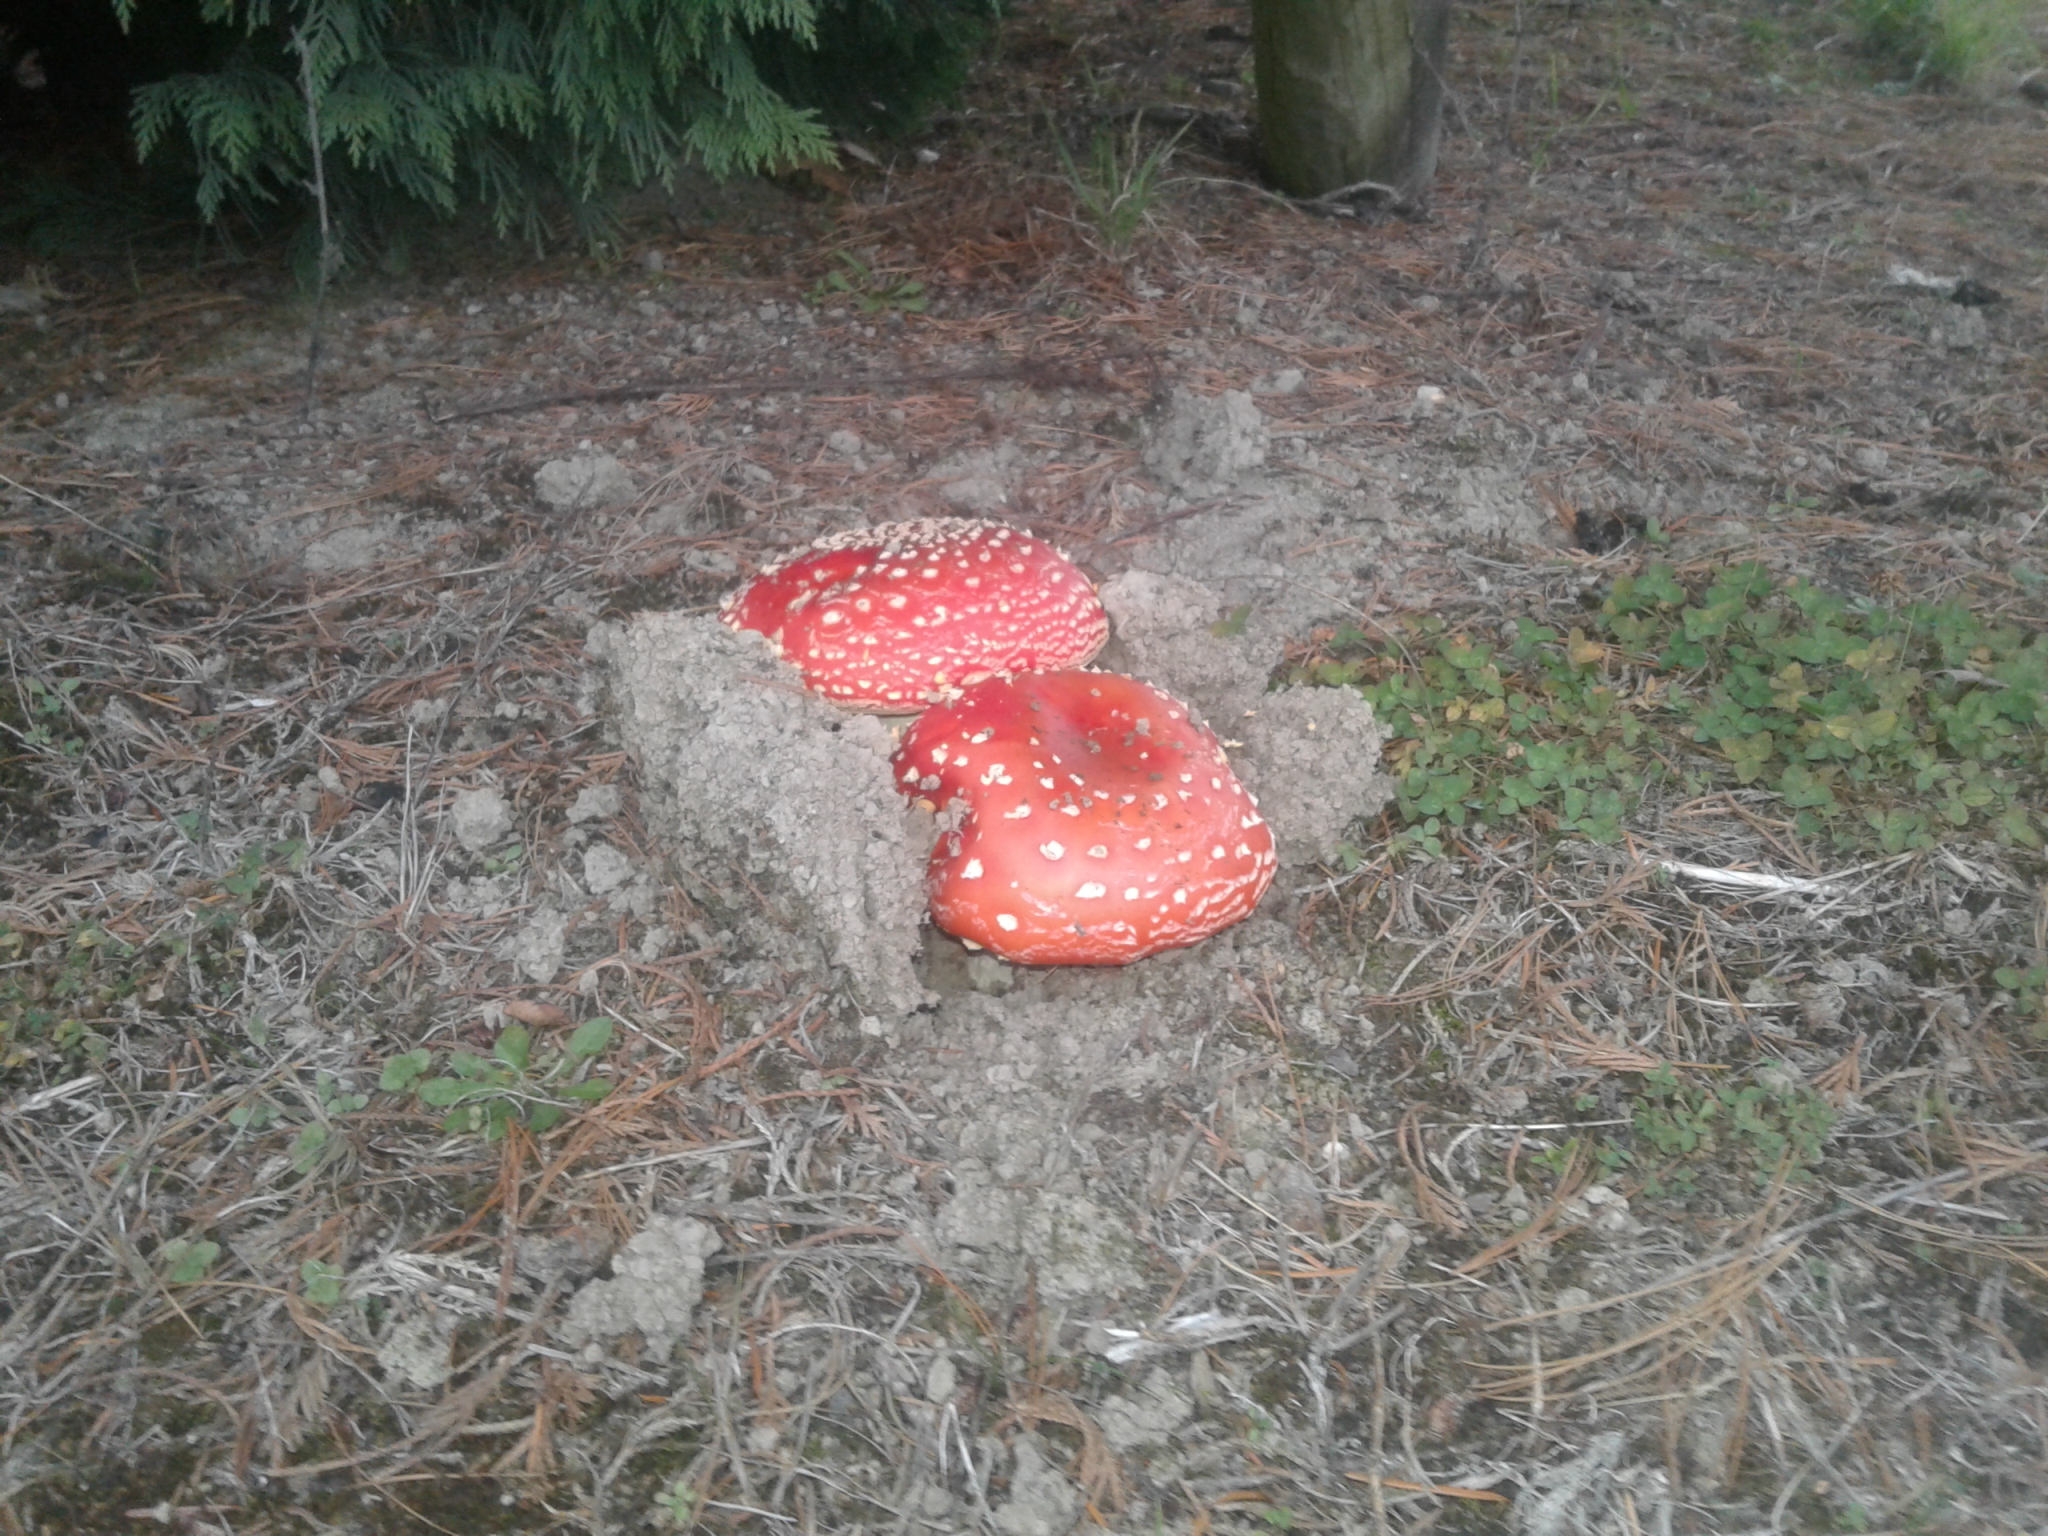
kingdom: Fungi
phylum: Basidiomycota
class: Agaricomycetes
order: Agaricales
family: Amanitaceae
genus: Amanita
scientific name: Amanita muscaria
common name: Fly agaric
